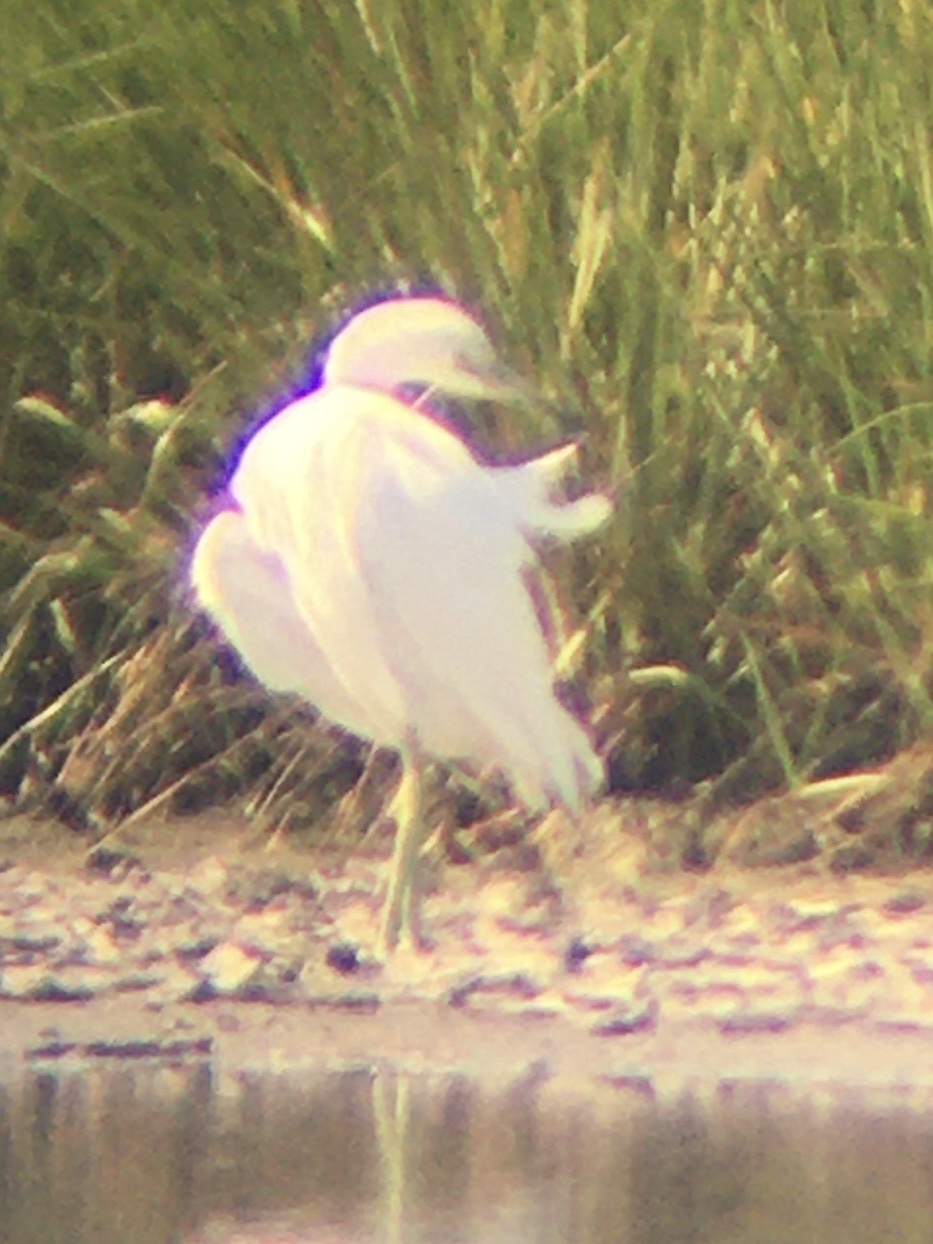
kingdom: Animalia
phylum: Chordata
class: Aves
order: Pelecaniformes
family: Ardeidae
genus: Egretta
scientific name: Egretta caerulea
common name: Little blue heron
